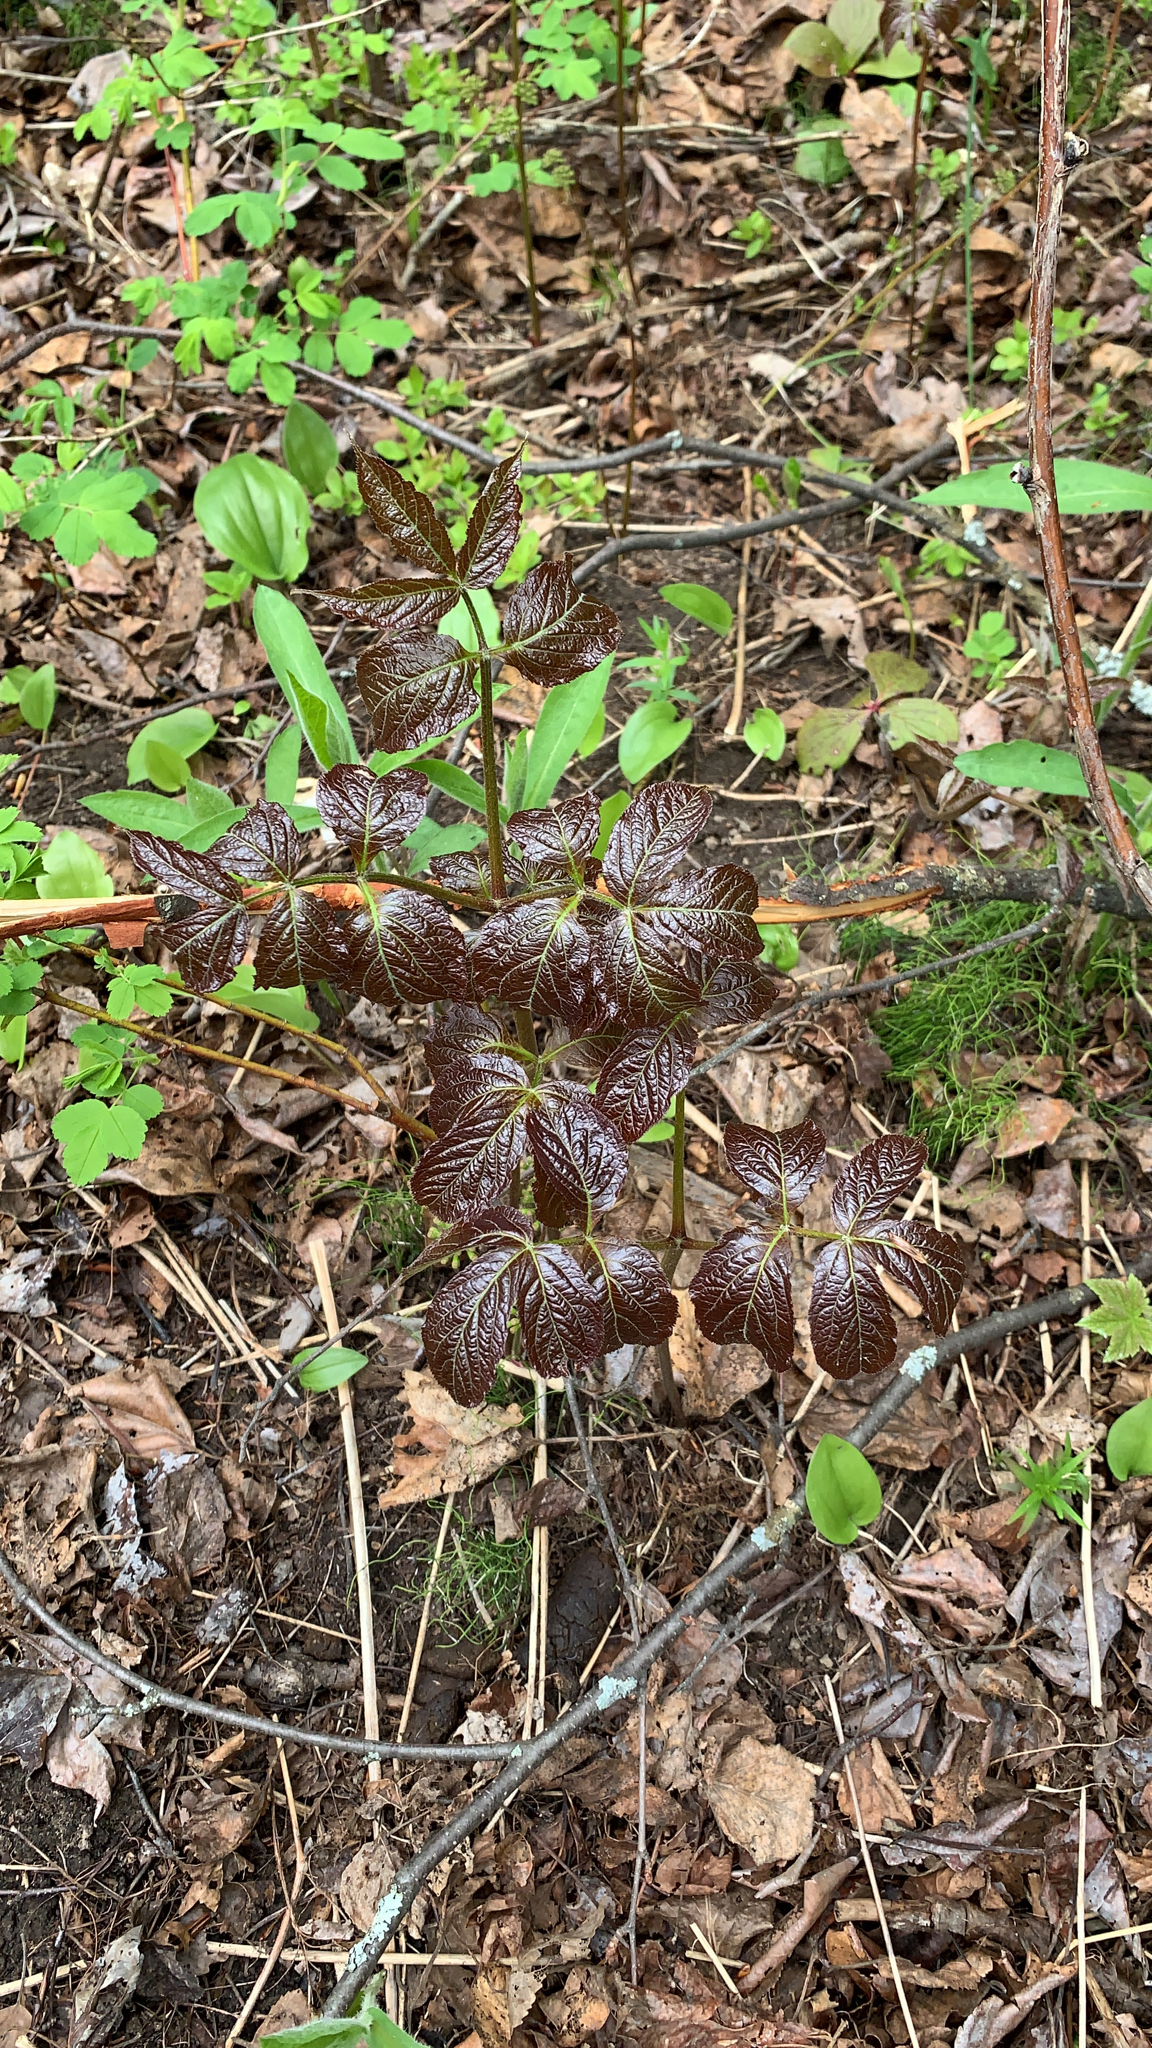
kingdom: Plantae
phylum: Tracheophyta
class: Magnoliopsida
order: Apiales
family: Araliaceae
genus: Aralia
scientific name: Aralia nudicaulis
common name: Wild sarsaparilla
